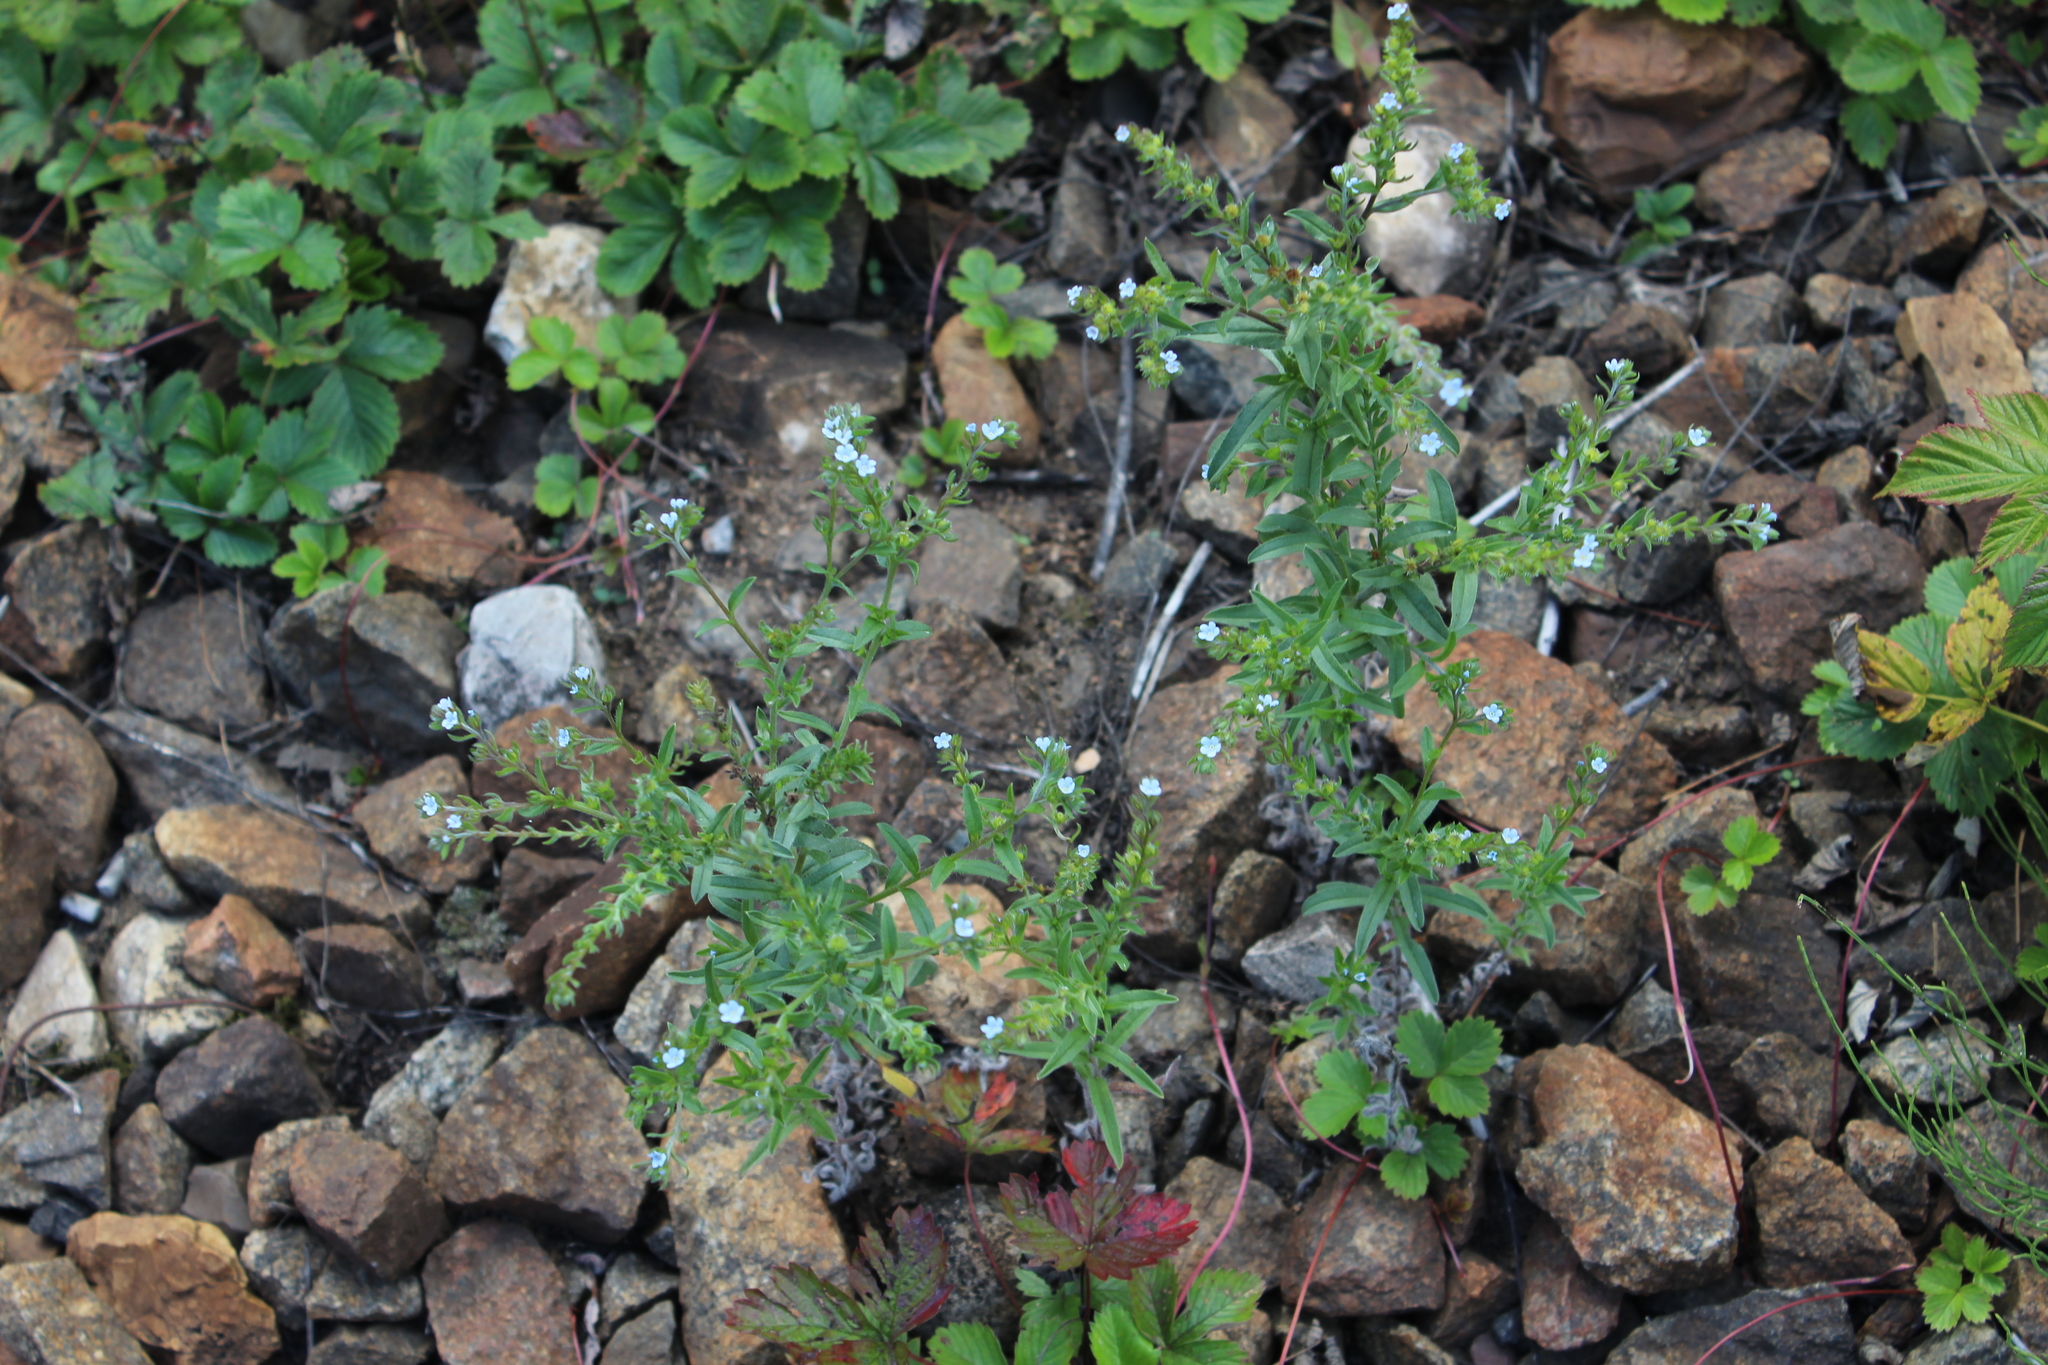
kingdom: Plantae
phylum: Tracheophyta
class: Magnoliopsida
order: Boraginales
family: Boraginaceae
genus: Lappula
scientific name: Lappula squarrosa
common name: European stickseed
